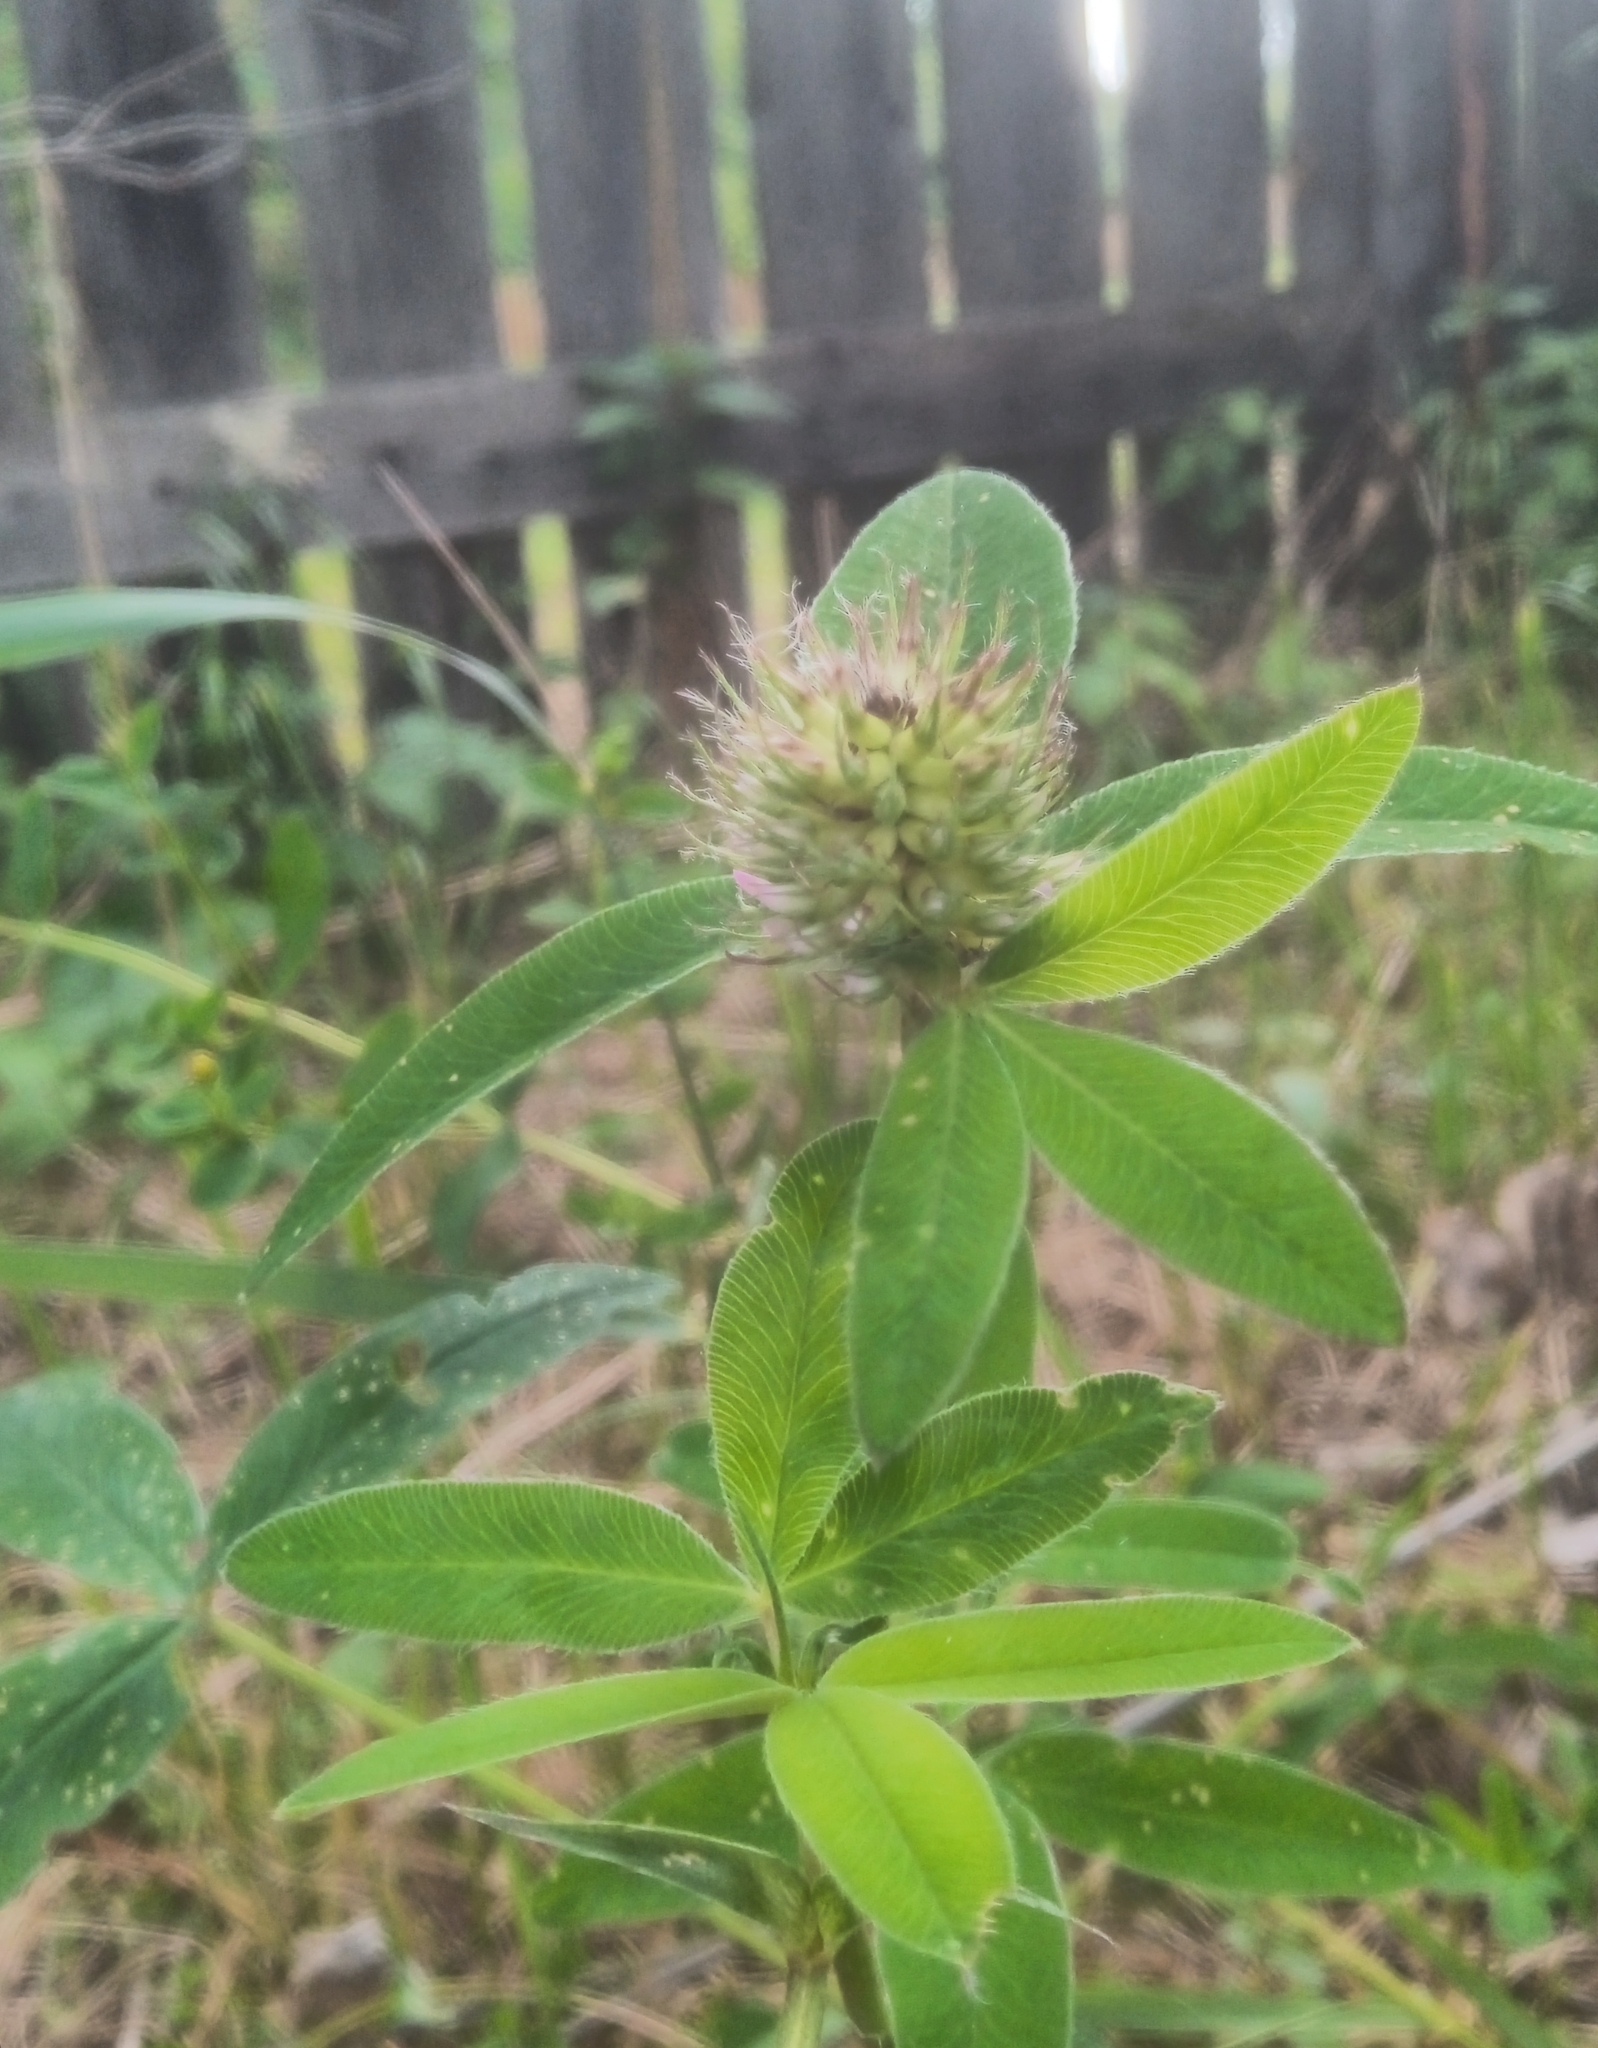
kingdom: Plantae
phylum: Tracheophyta
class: Magnoliopsida
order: Fabales
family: Fabaceae
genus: Trifolium
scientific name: Trifolium medium
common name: Zigzag clover
